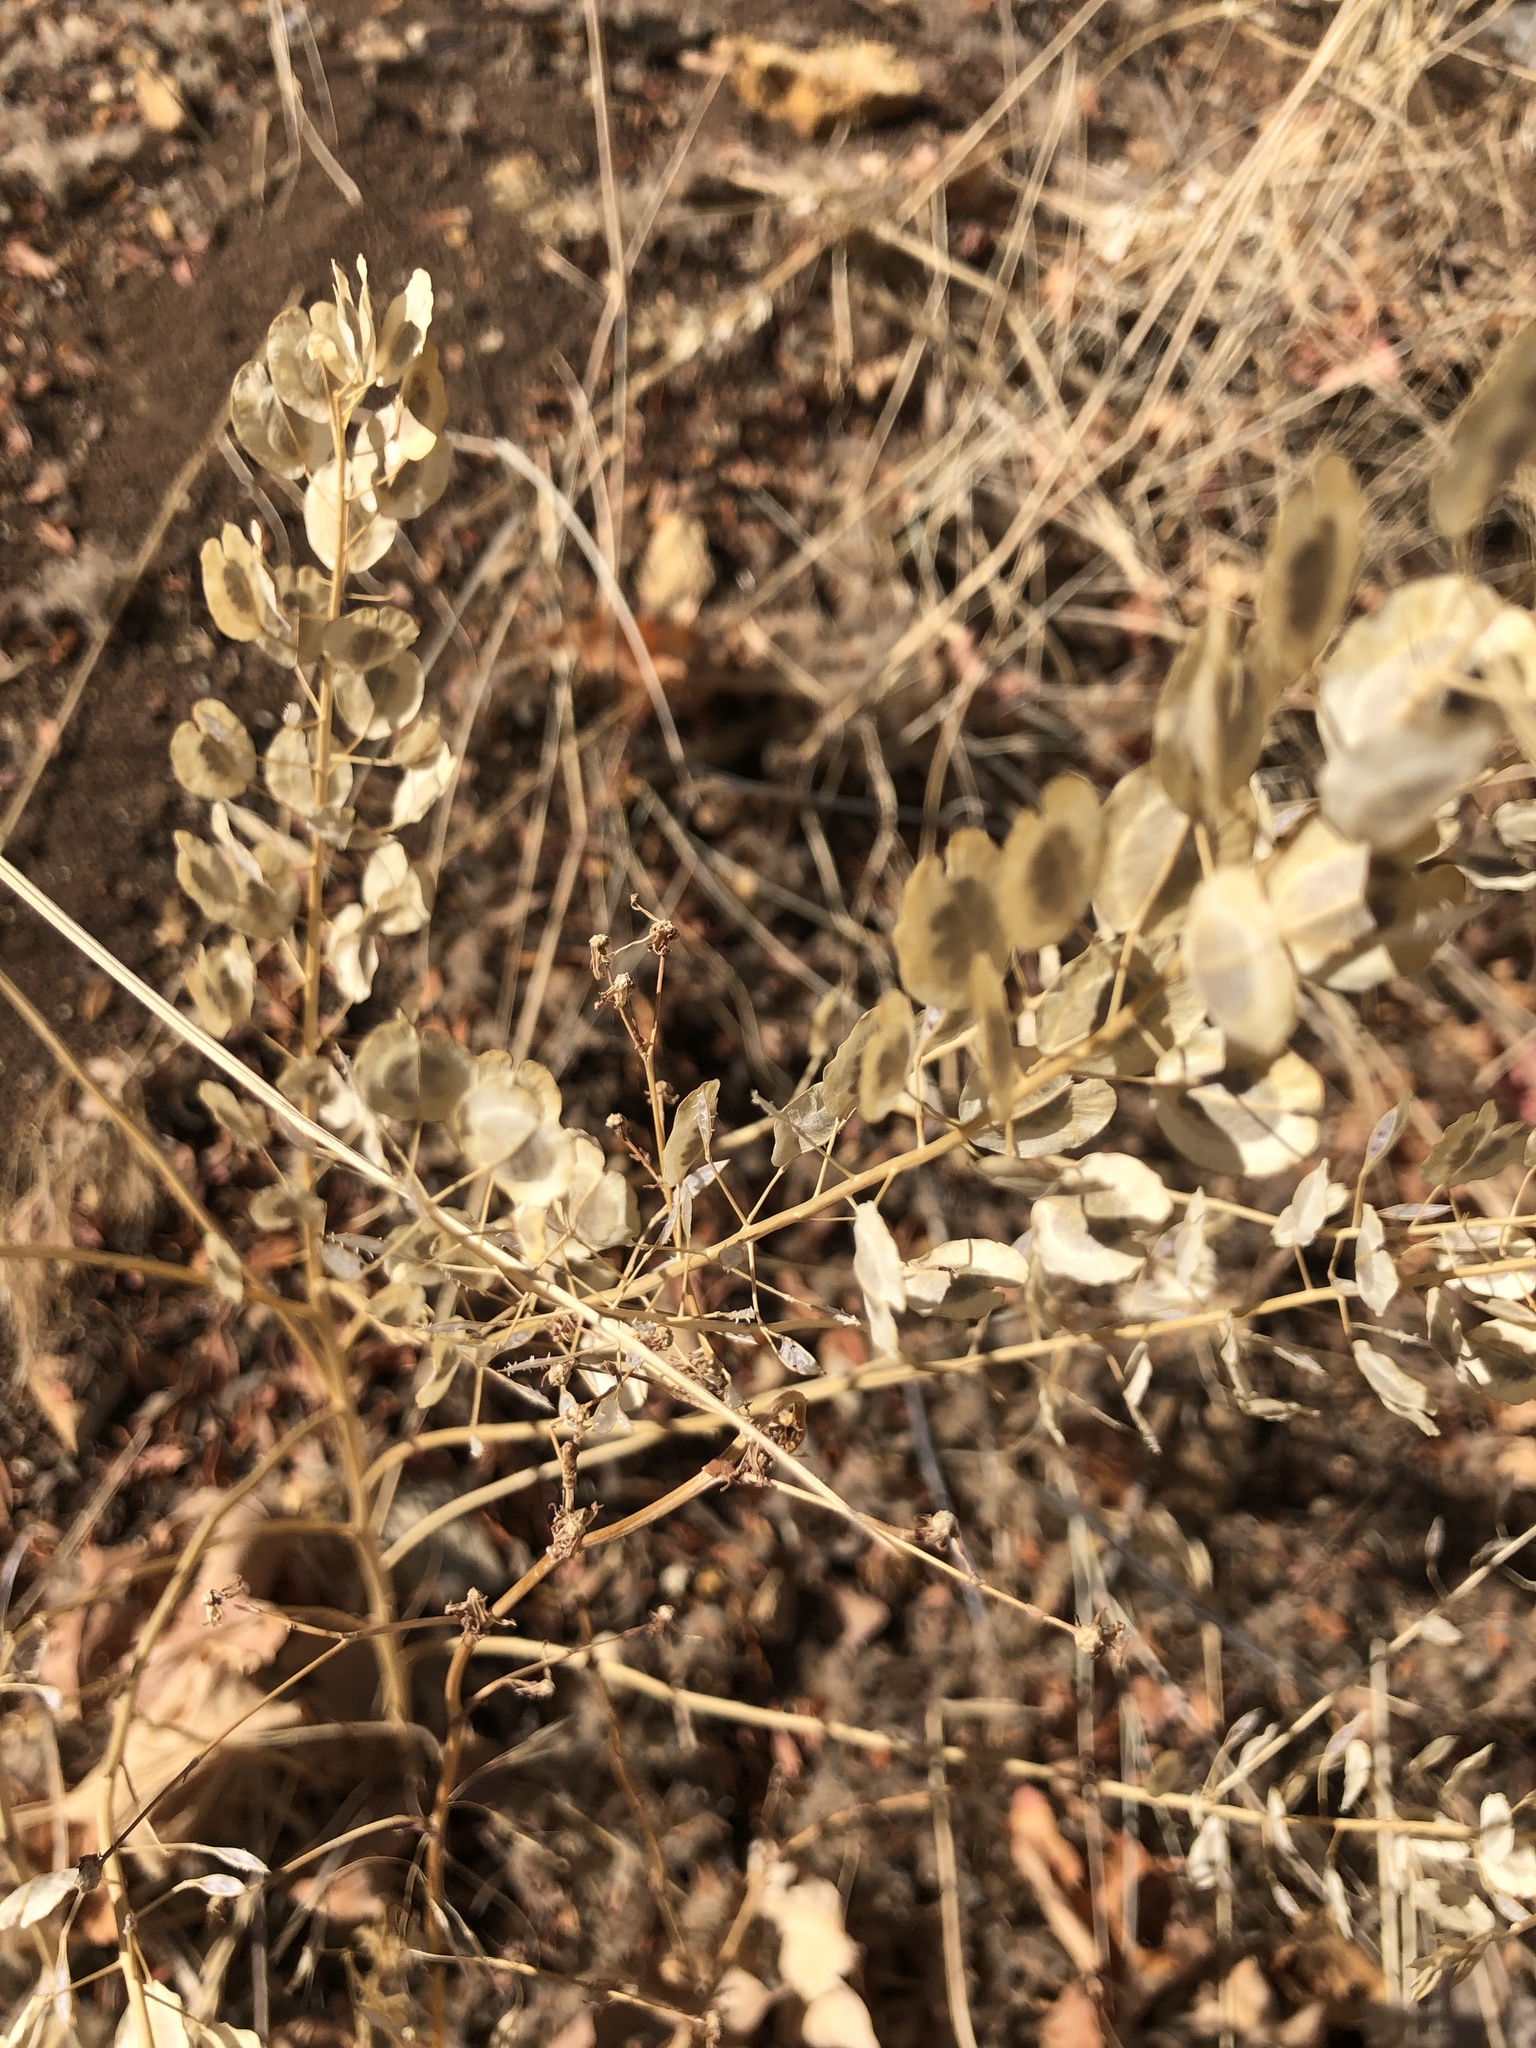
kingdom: Plantae
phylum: Tracheophyta
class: Magnoliopsida
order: Brassicales
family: Brassicaceae
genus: Thlaspi
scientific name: Thlaspi arvense
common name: Field pennycress
